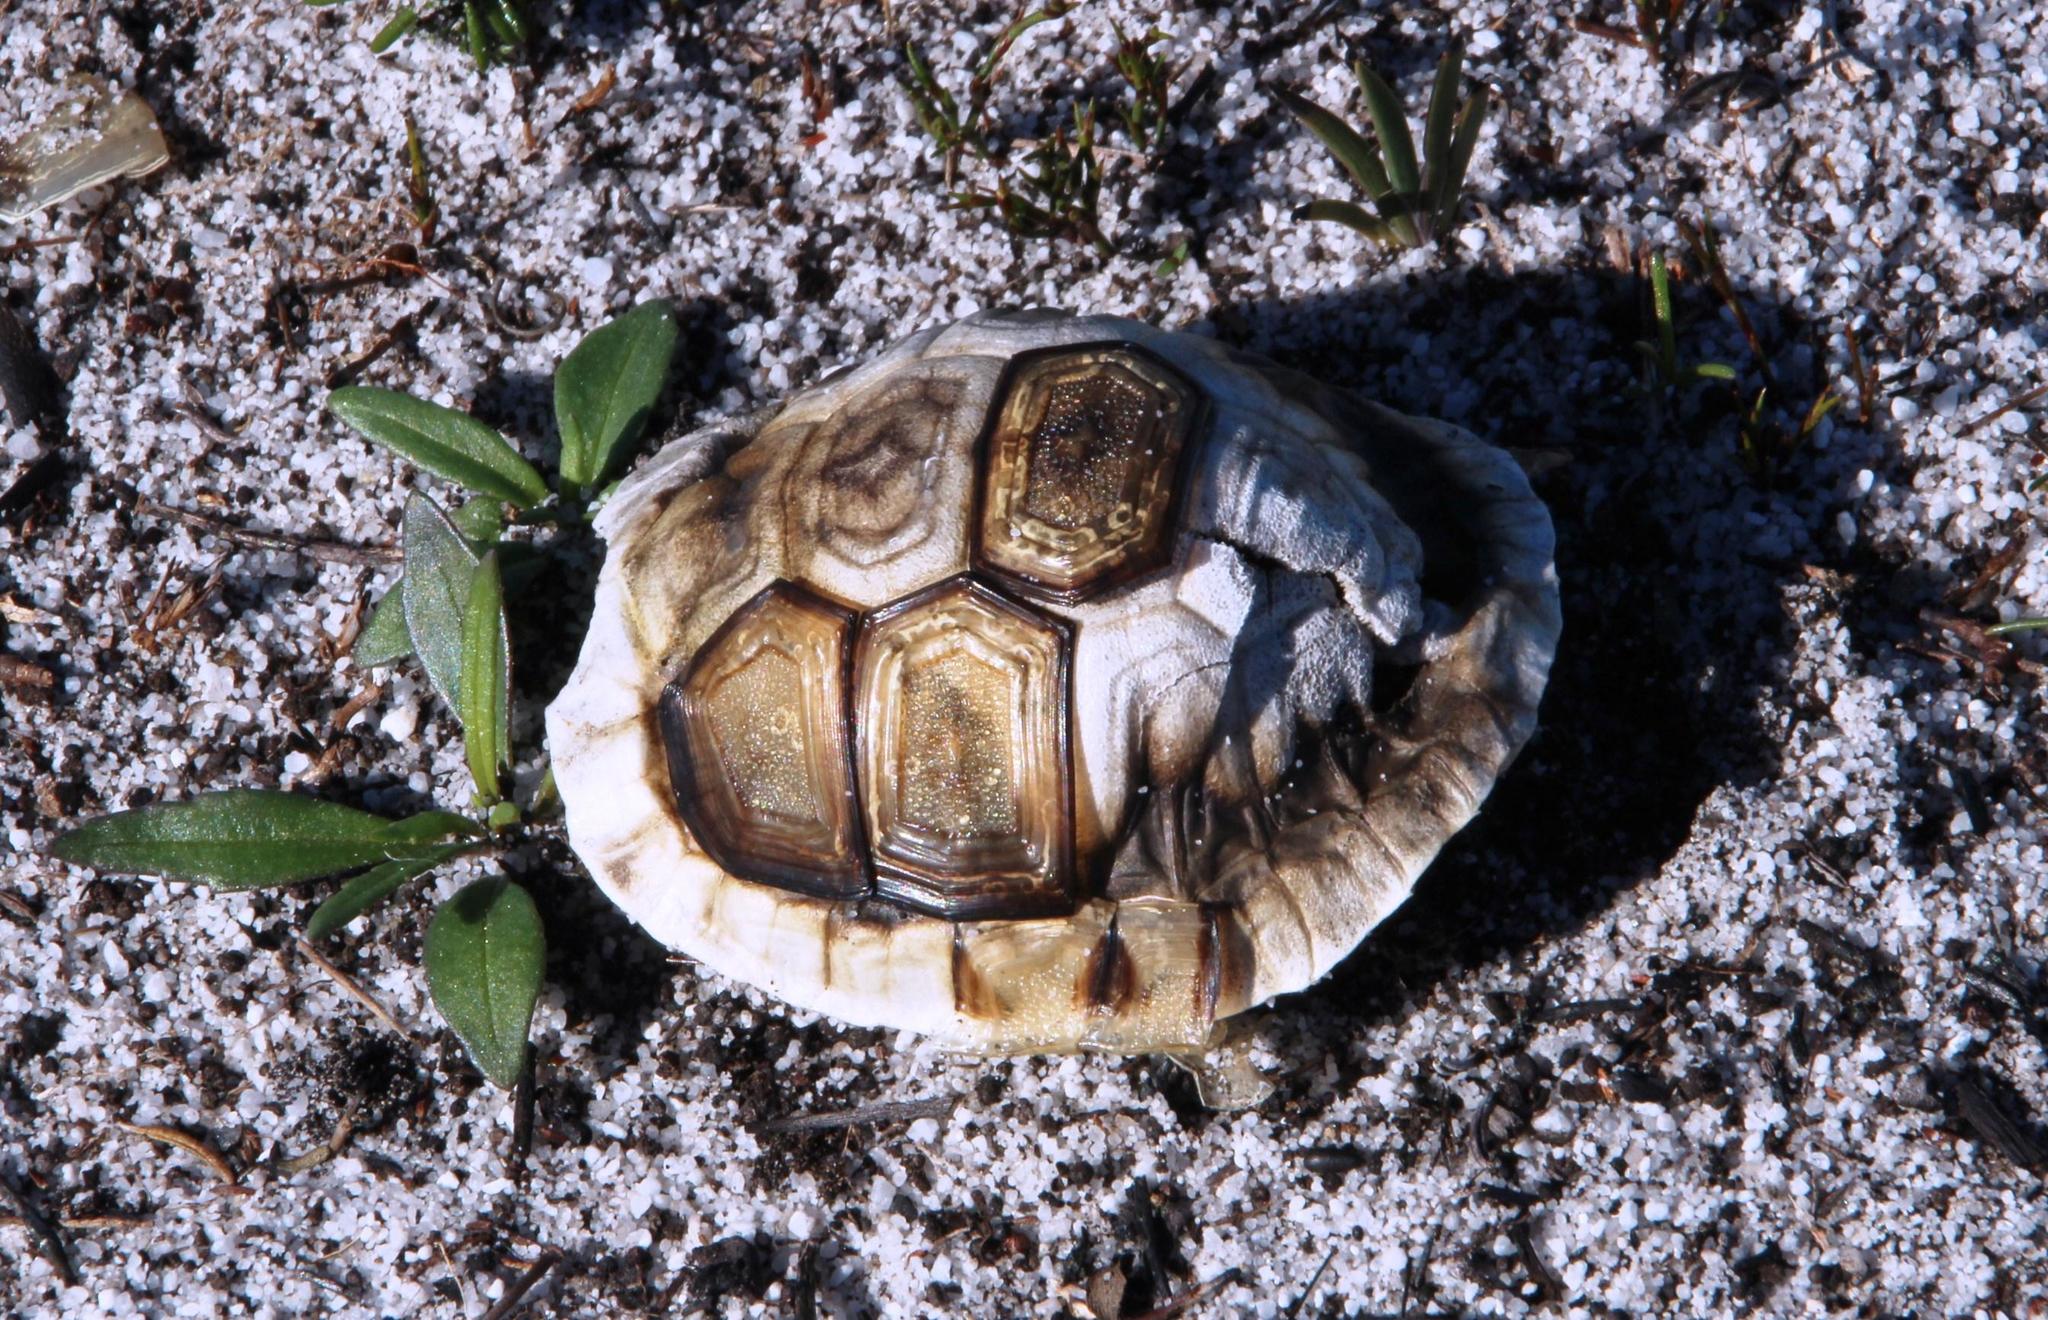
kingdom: Animalia
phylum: Chordata
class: Testudines
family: Testudinidae
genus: Chersina
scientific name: Chersina angulata
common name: South african bowsprit tortoise
